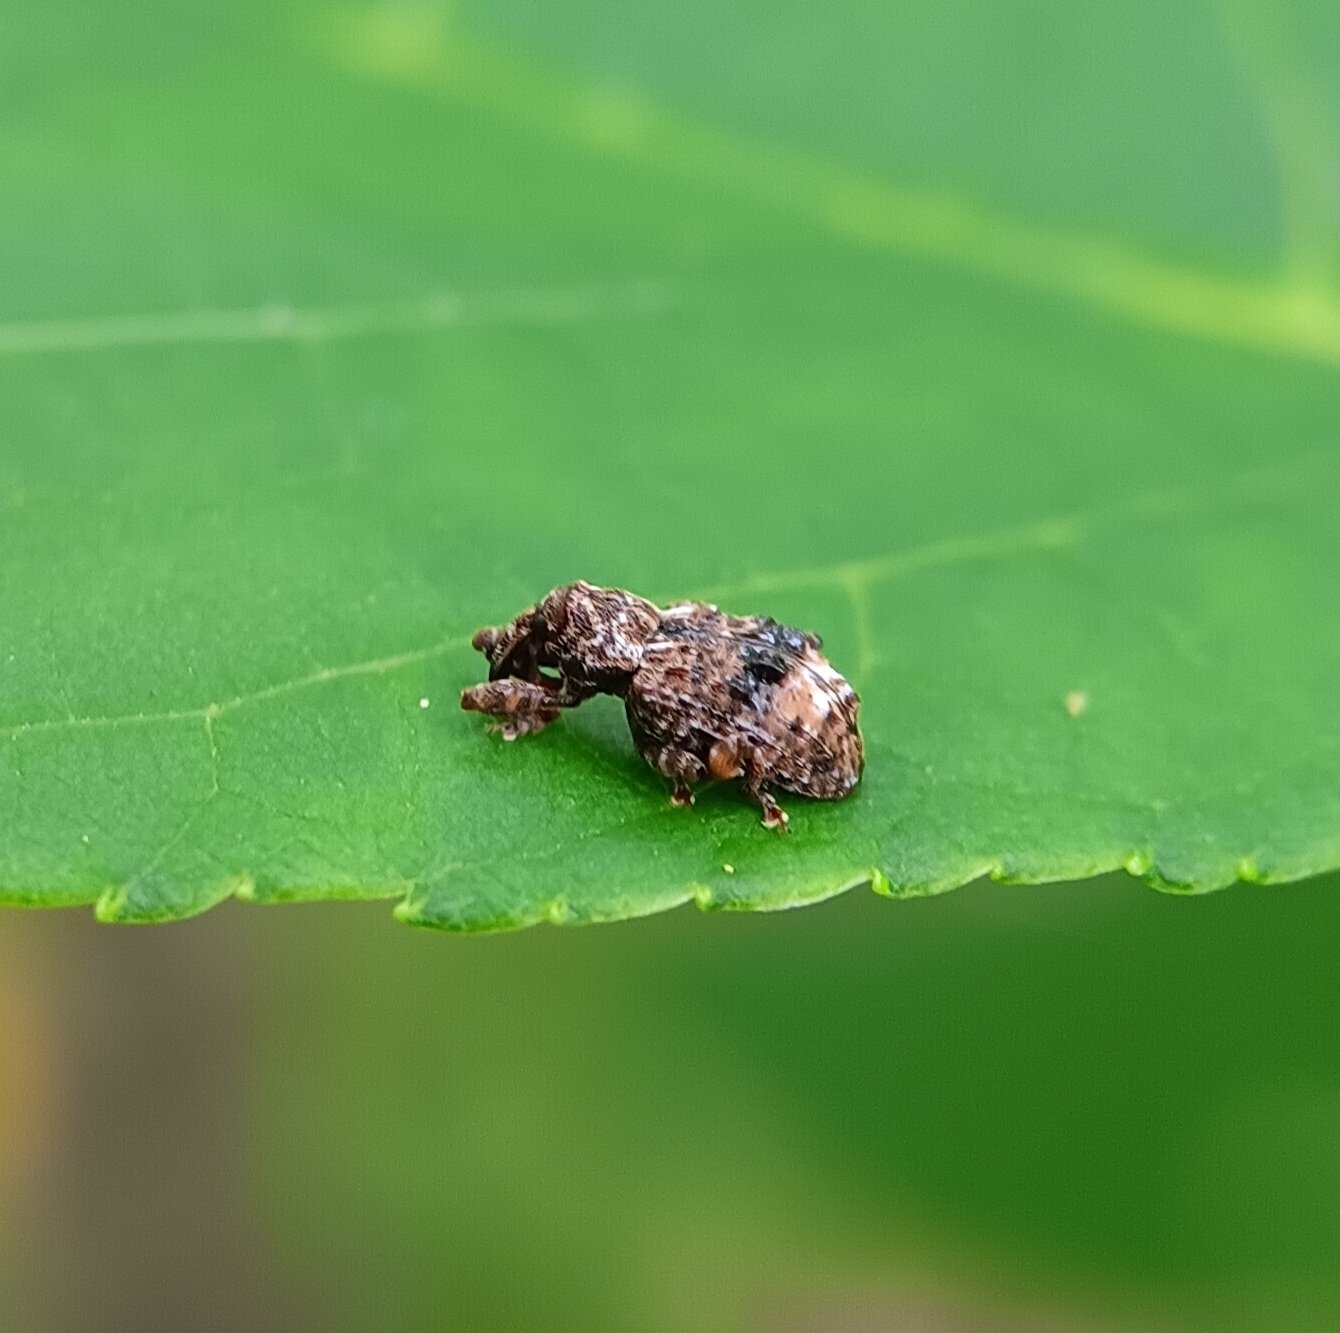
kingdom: Animalia
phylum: Arthropoda
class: Insecta
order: Coleoptera
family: Curculionidae
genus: Conotrachelus
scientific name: Conotrachelus nenuphar
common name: Plum curculio
